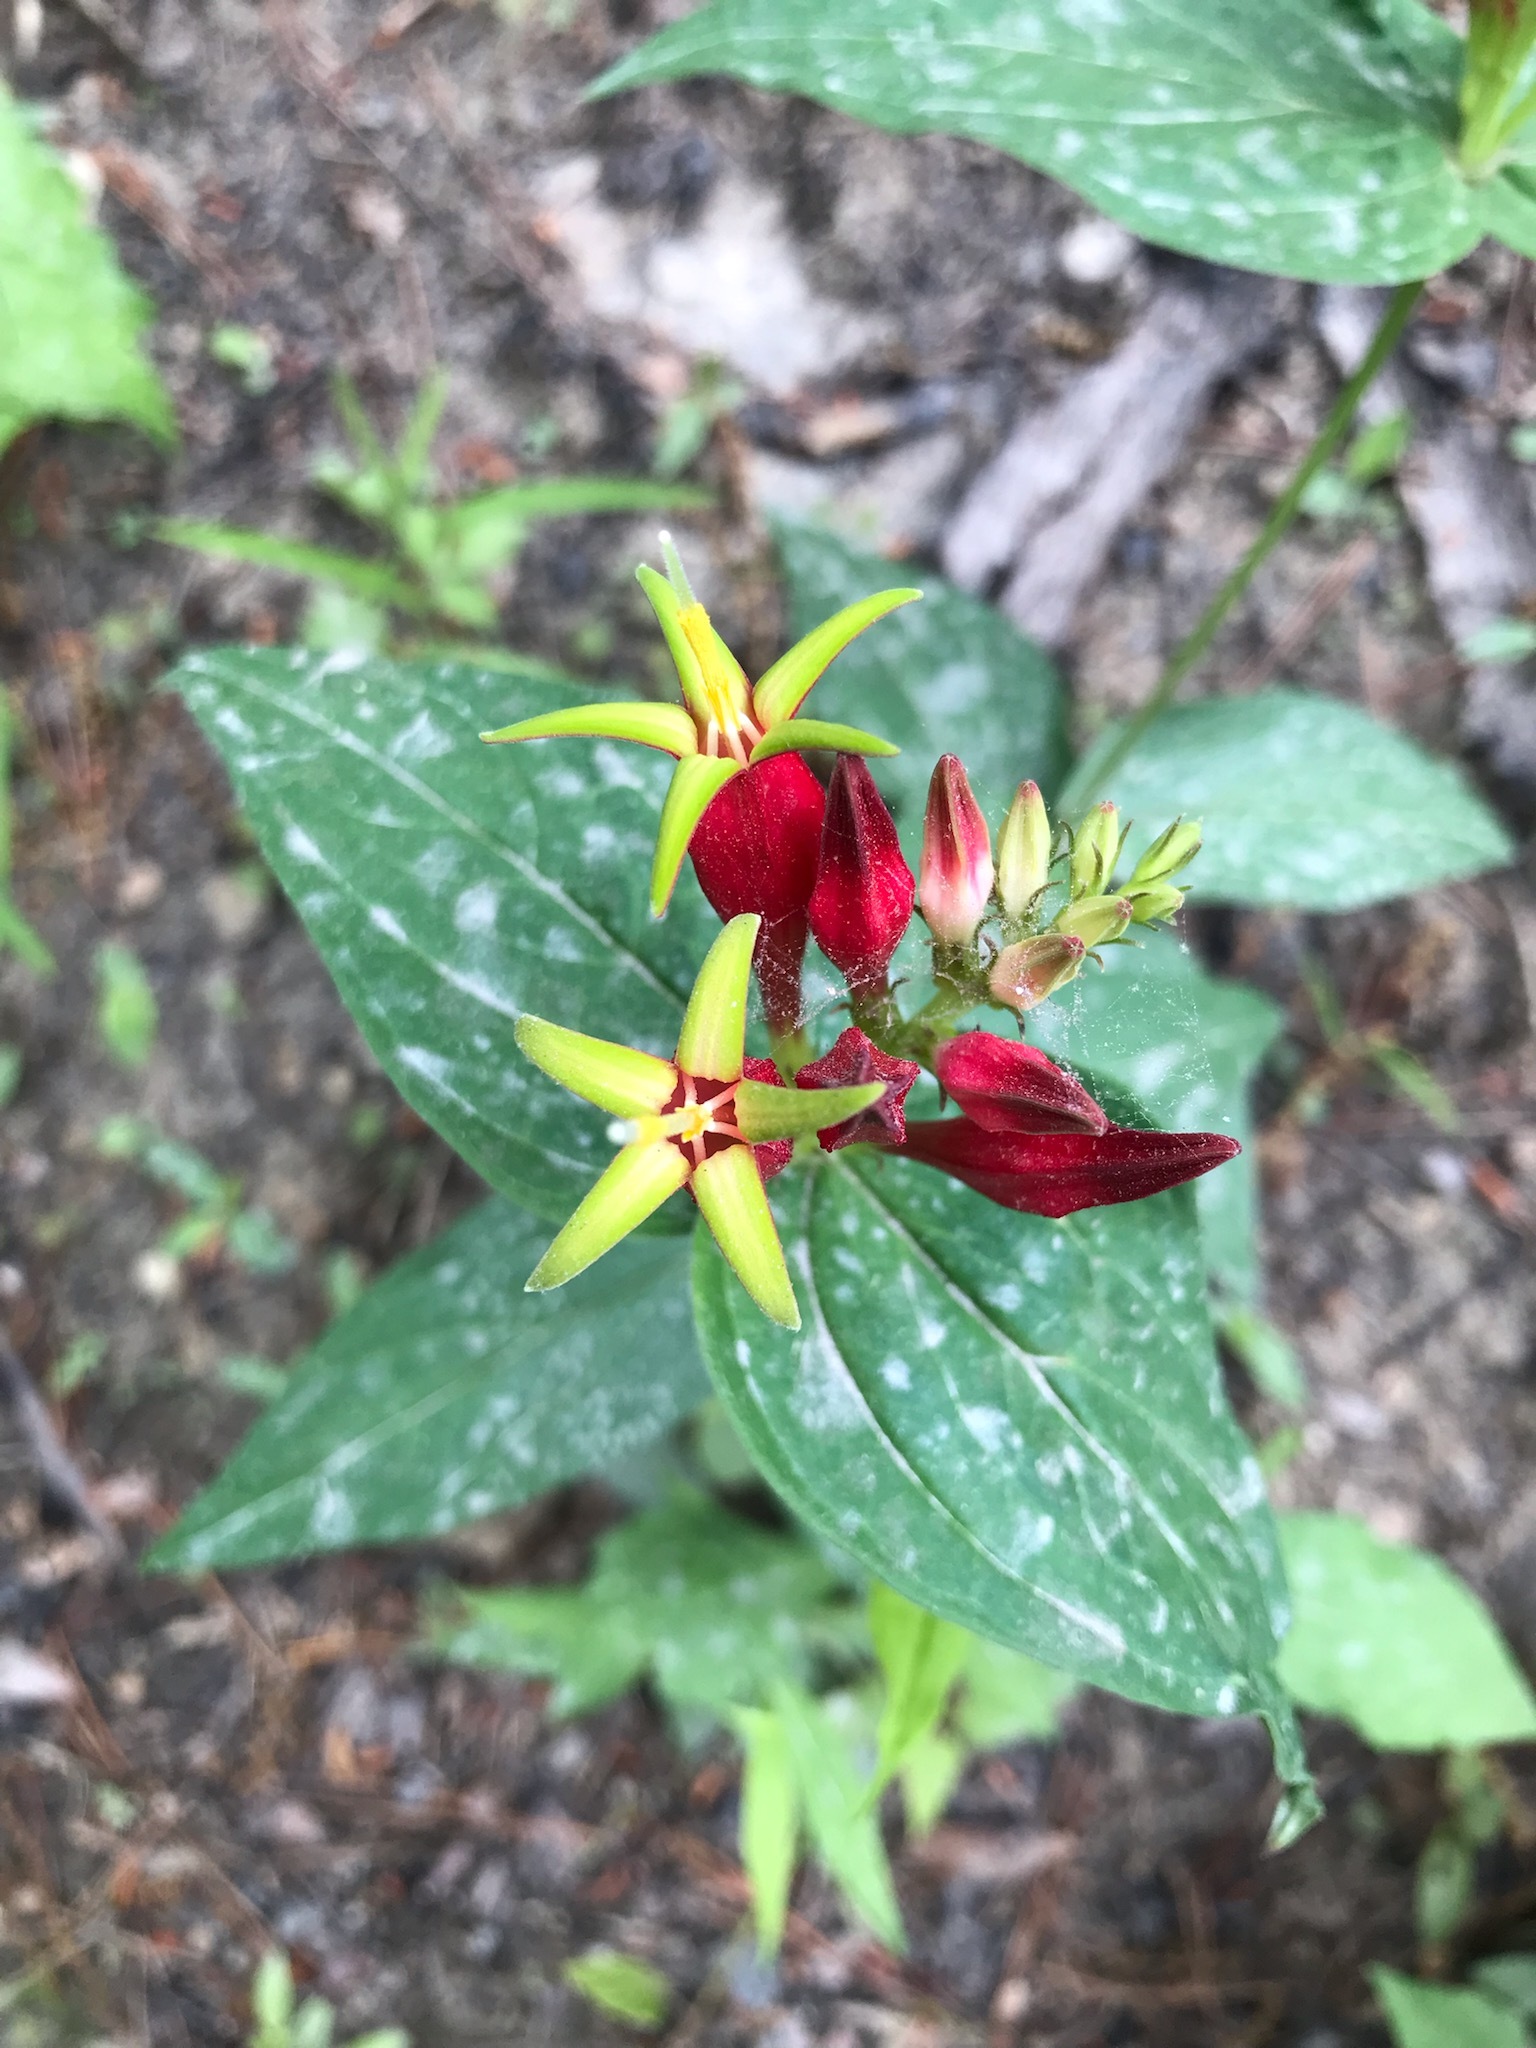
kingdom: Plantae
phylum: Tracheophyta
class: Magnoliopsida
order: Gentianales
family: Loganiaceae
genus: Spigelia
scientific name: Spigelia marilandica
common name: Indian-pink
